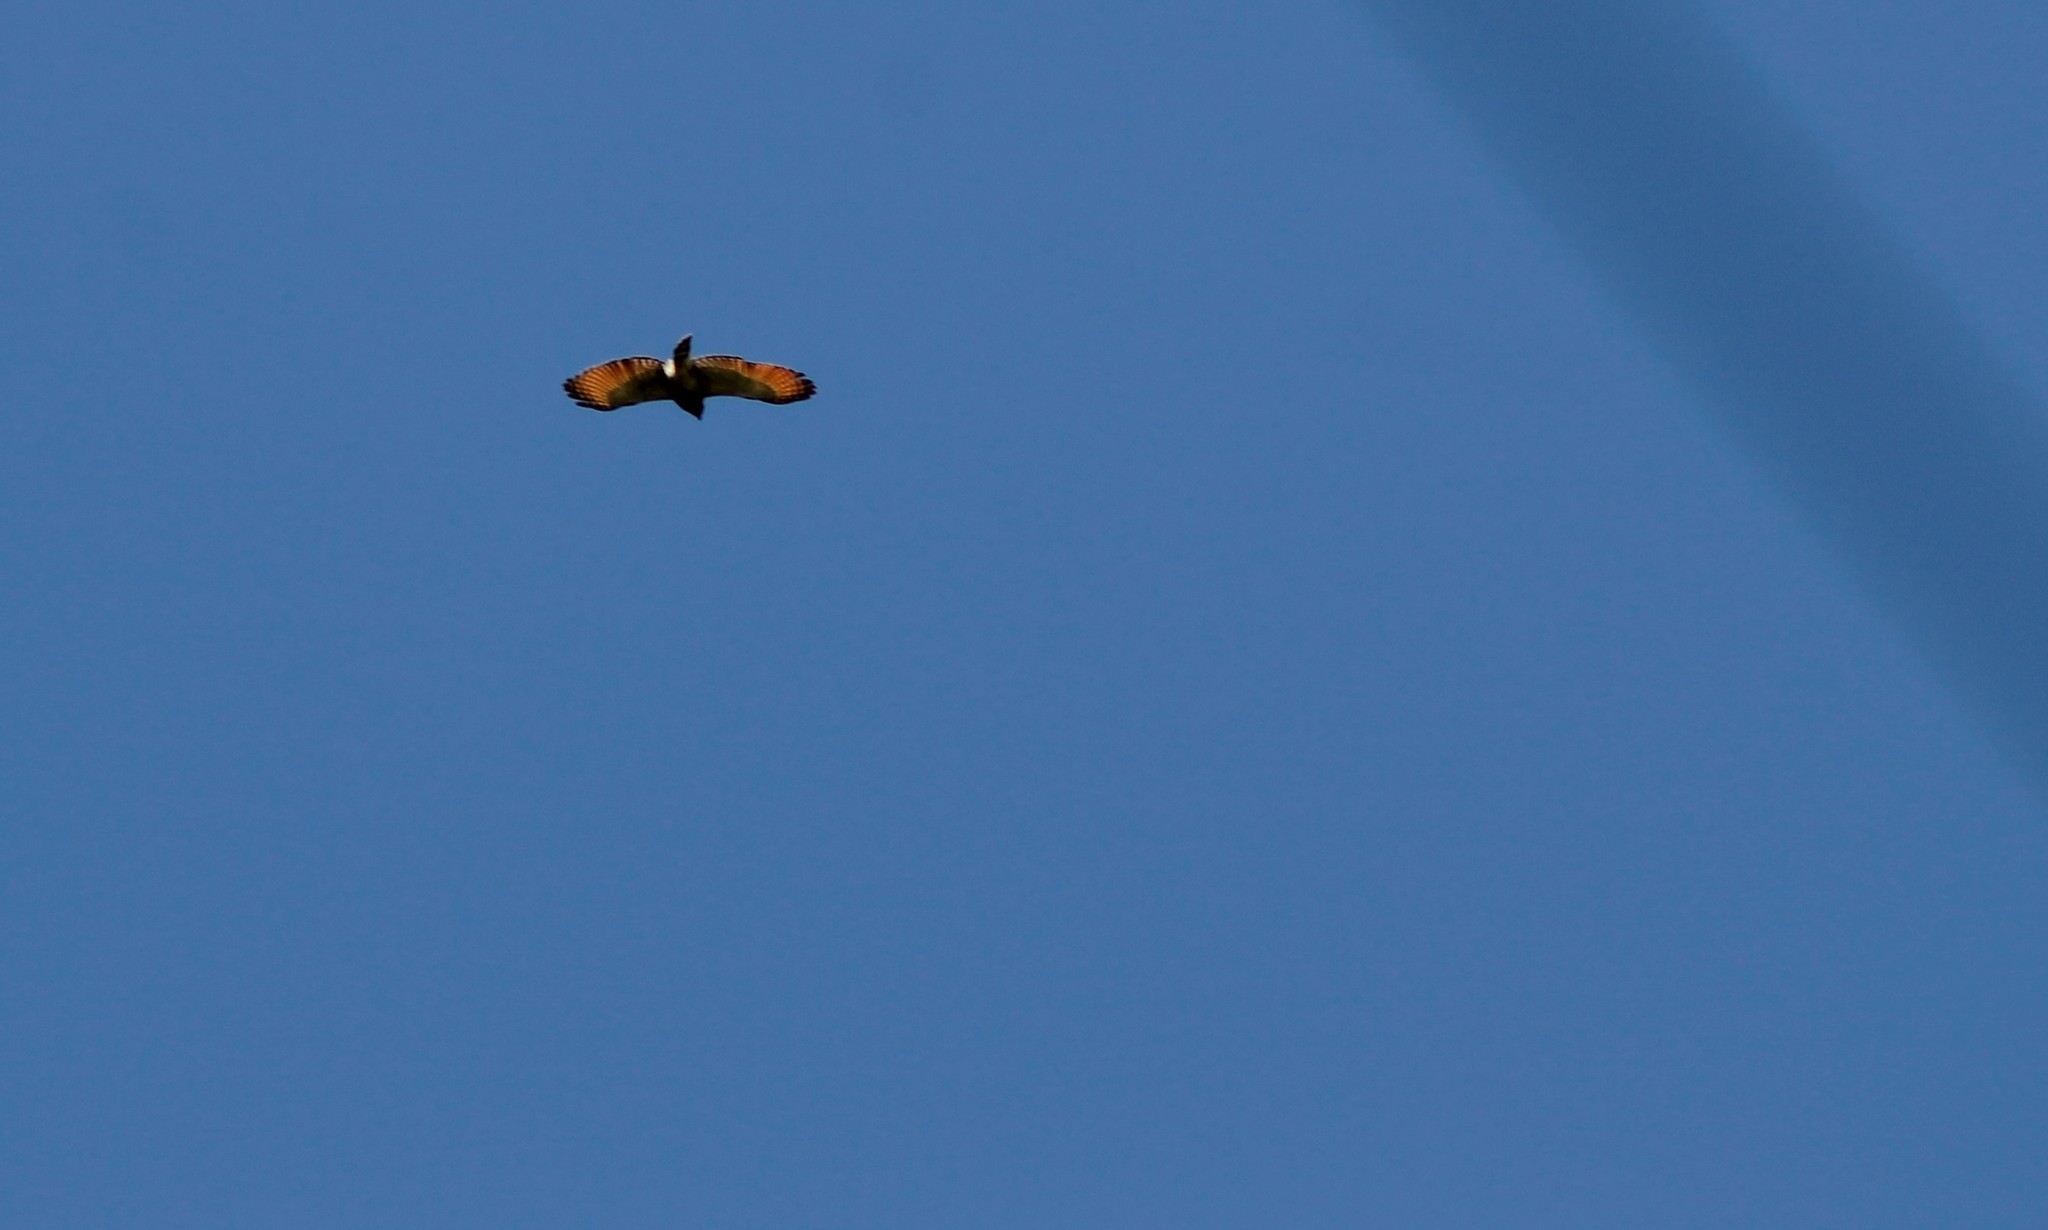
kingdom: Animalia
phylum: Chordata
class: Aves
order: Accipitriformes
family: Accipitridae
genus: Rupornis
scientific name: Rupornis magnirostris
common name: Roadside hawk
